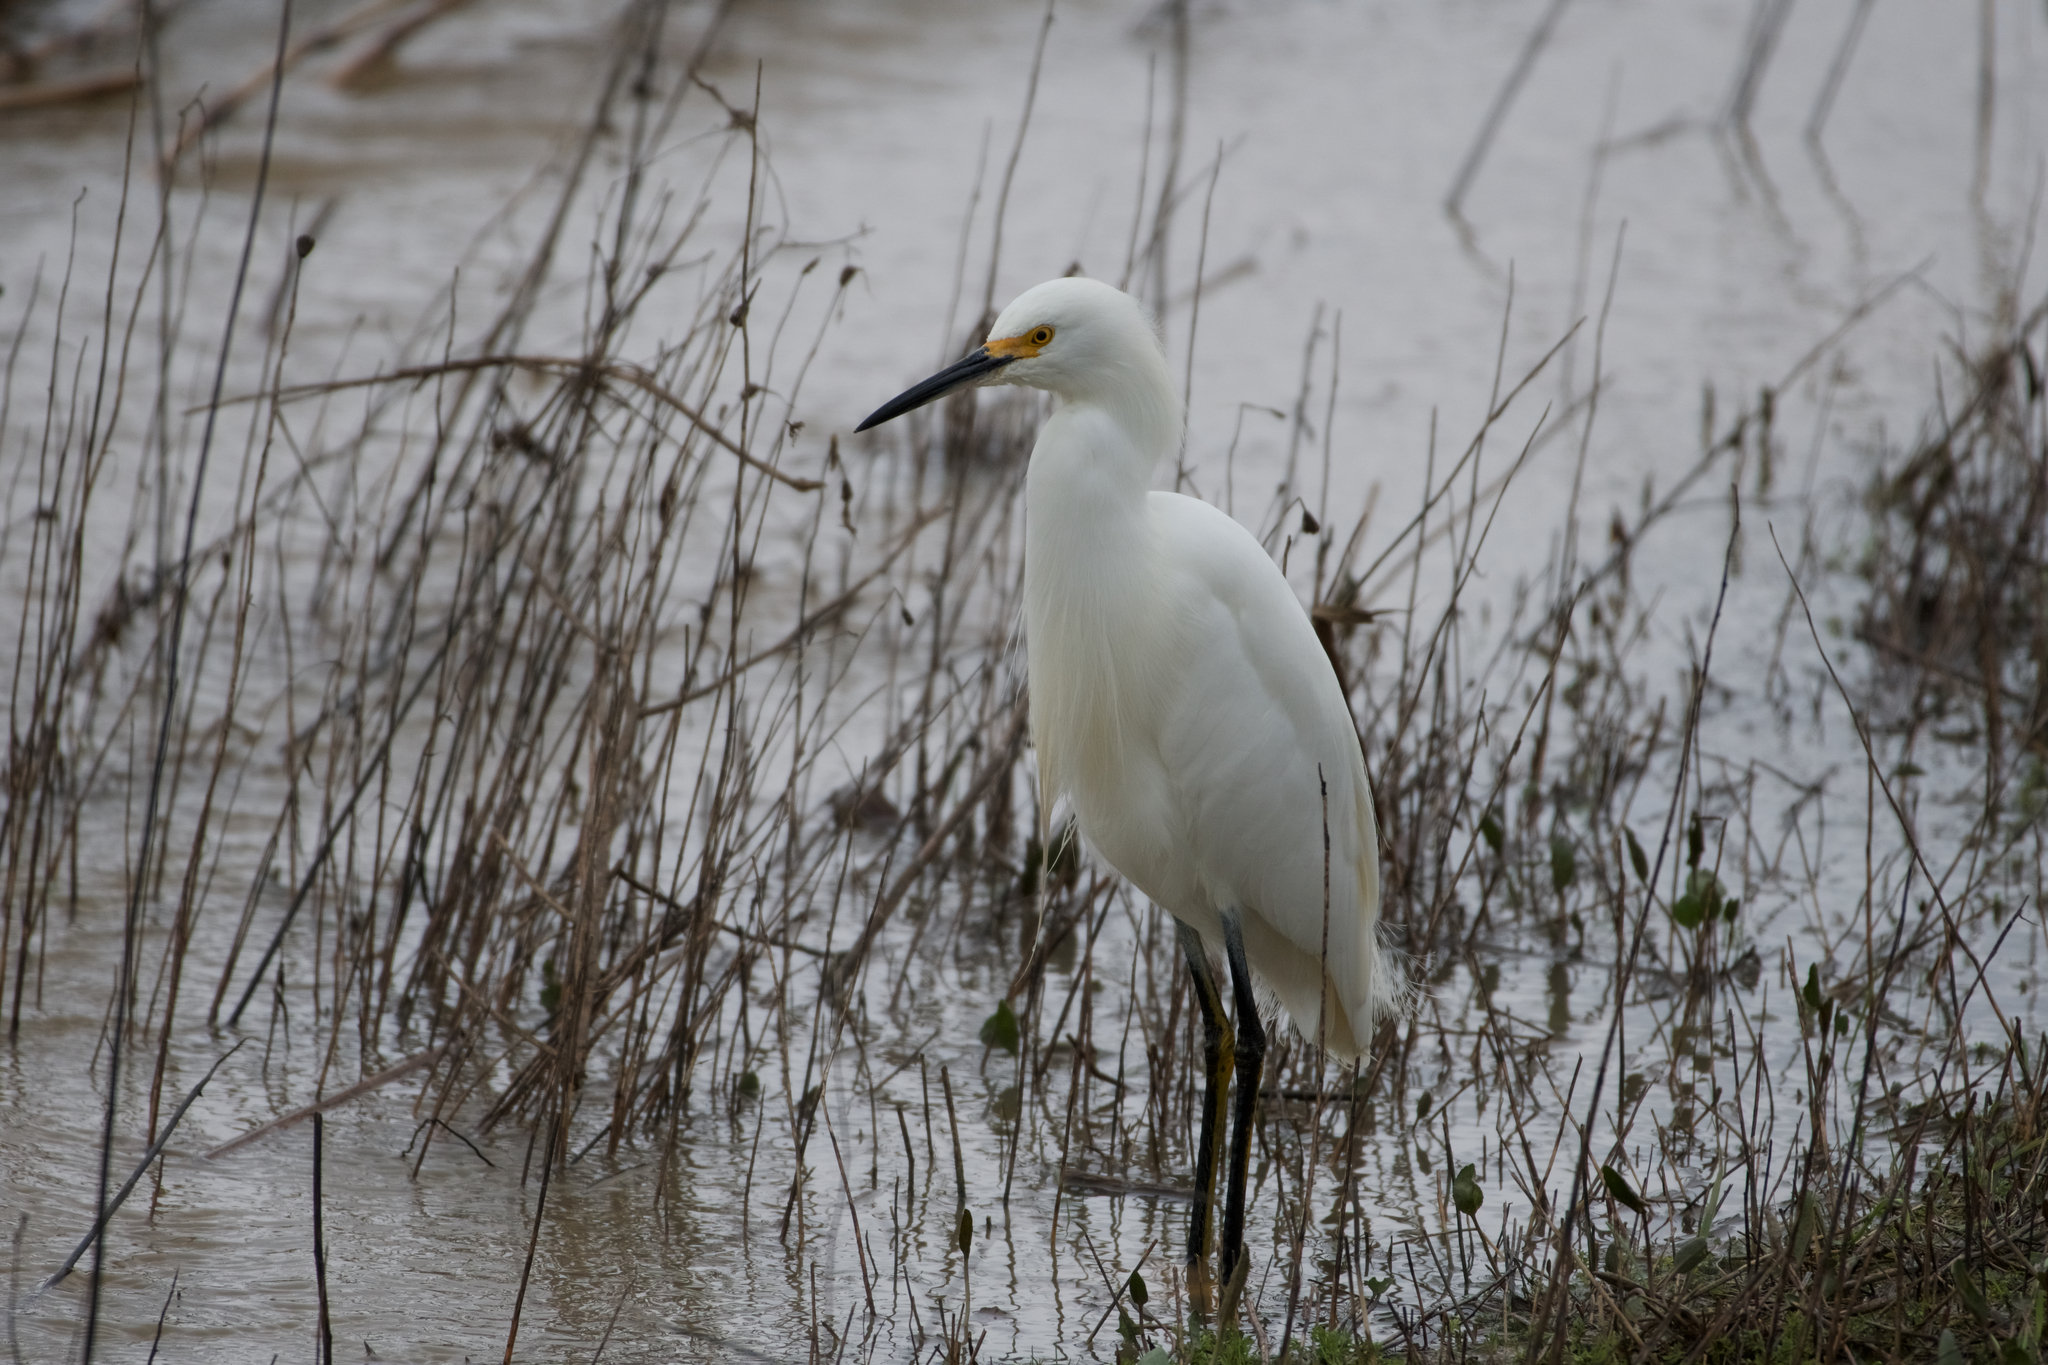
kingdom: Animalia
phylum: Chordata
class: Aves
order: Pelecaniformes
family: Ardeidae
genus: Egretta
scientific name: Egretta thula
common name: Snowy egret
